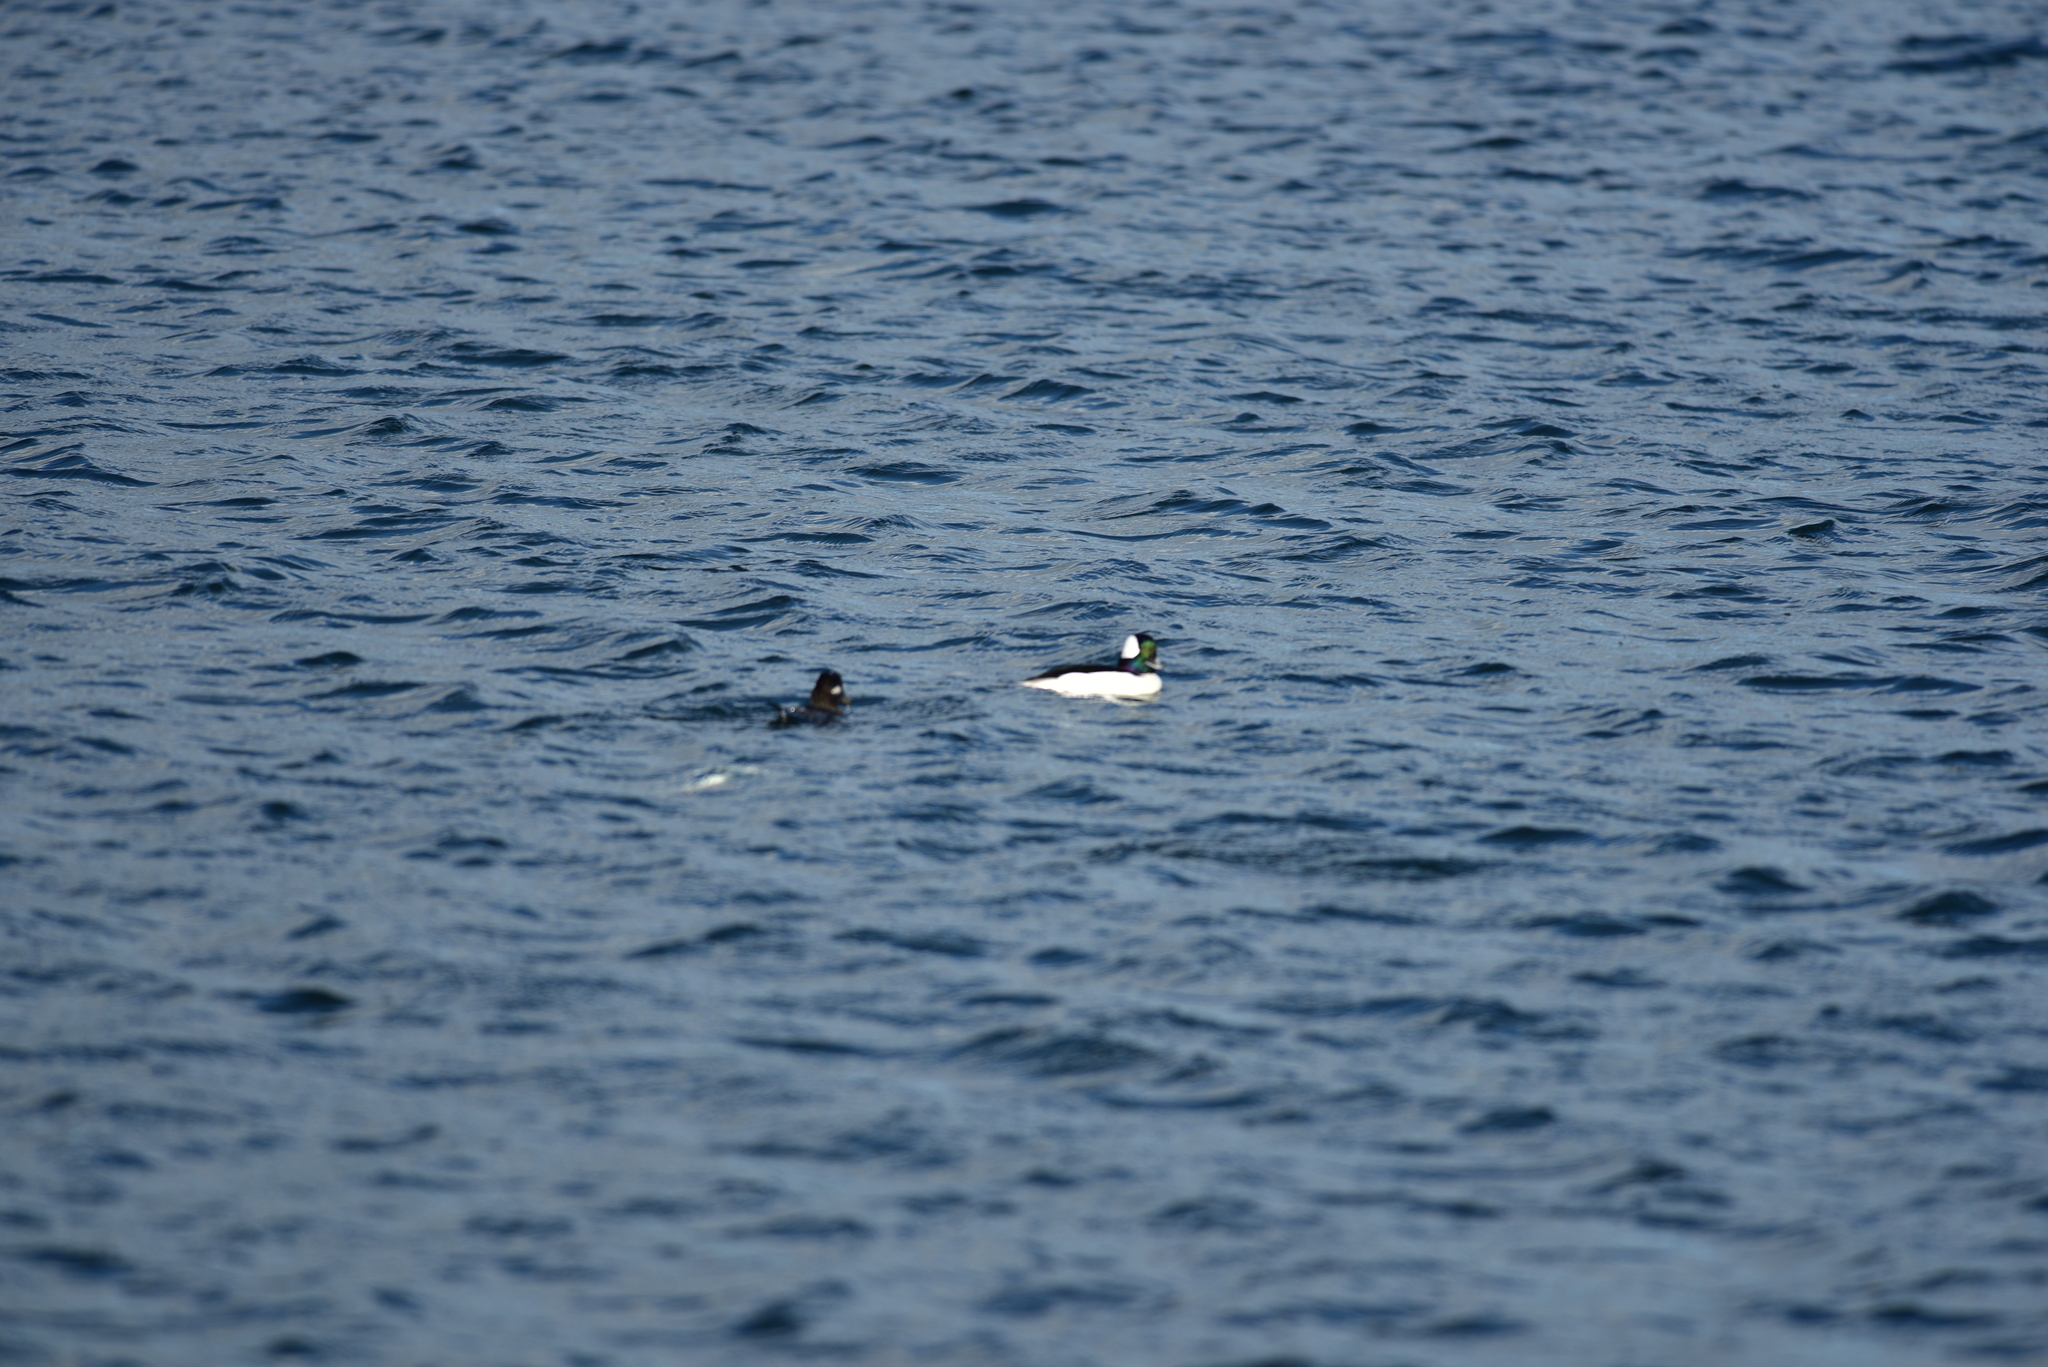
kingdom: Animalia
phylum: Chordata
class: Aves
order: Anseriformes
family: Anatidae
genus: Bucephala
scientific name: Bucephala albeola
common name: Bufflehead
